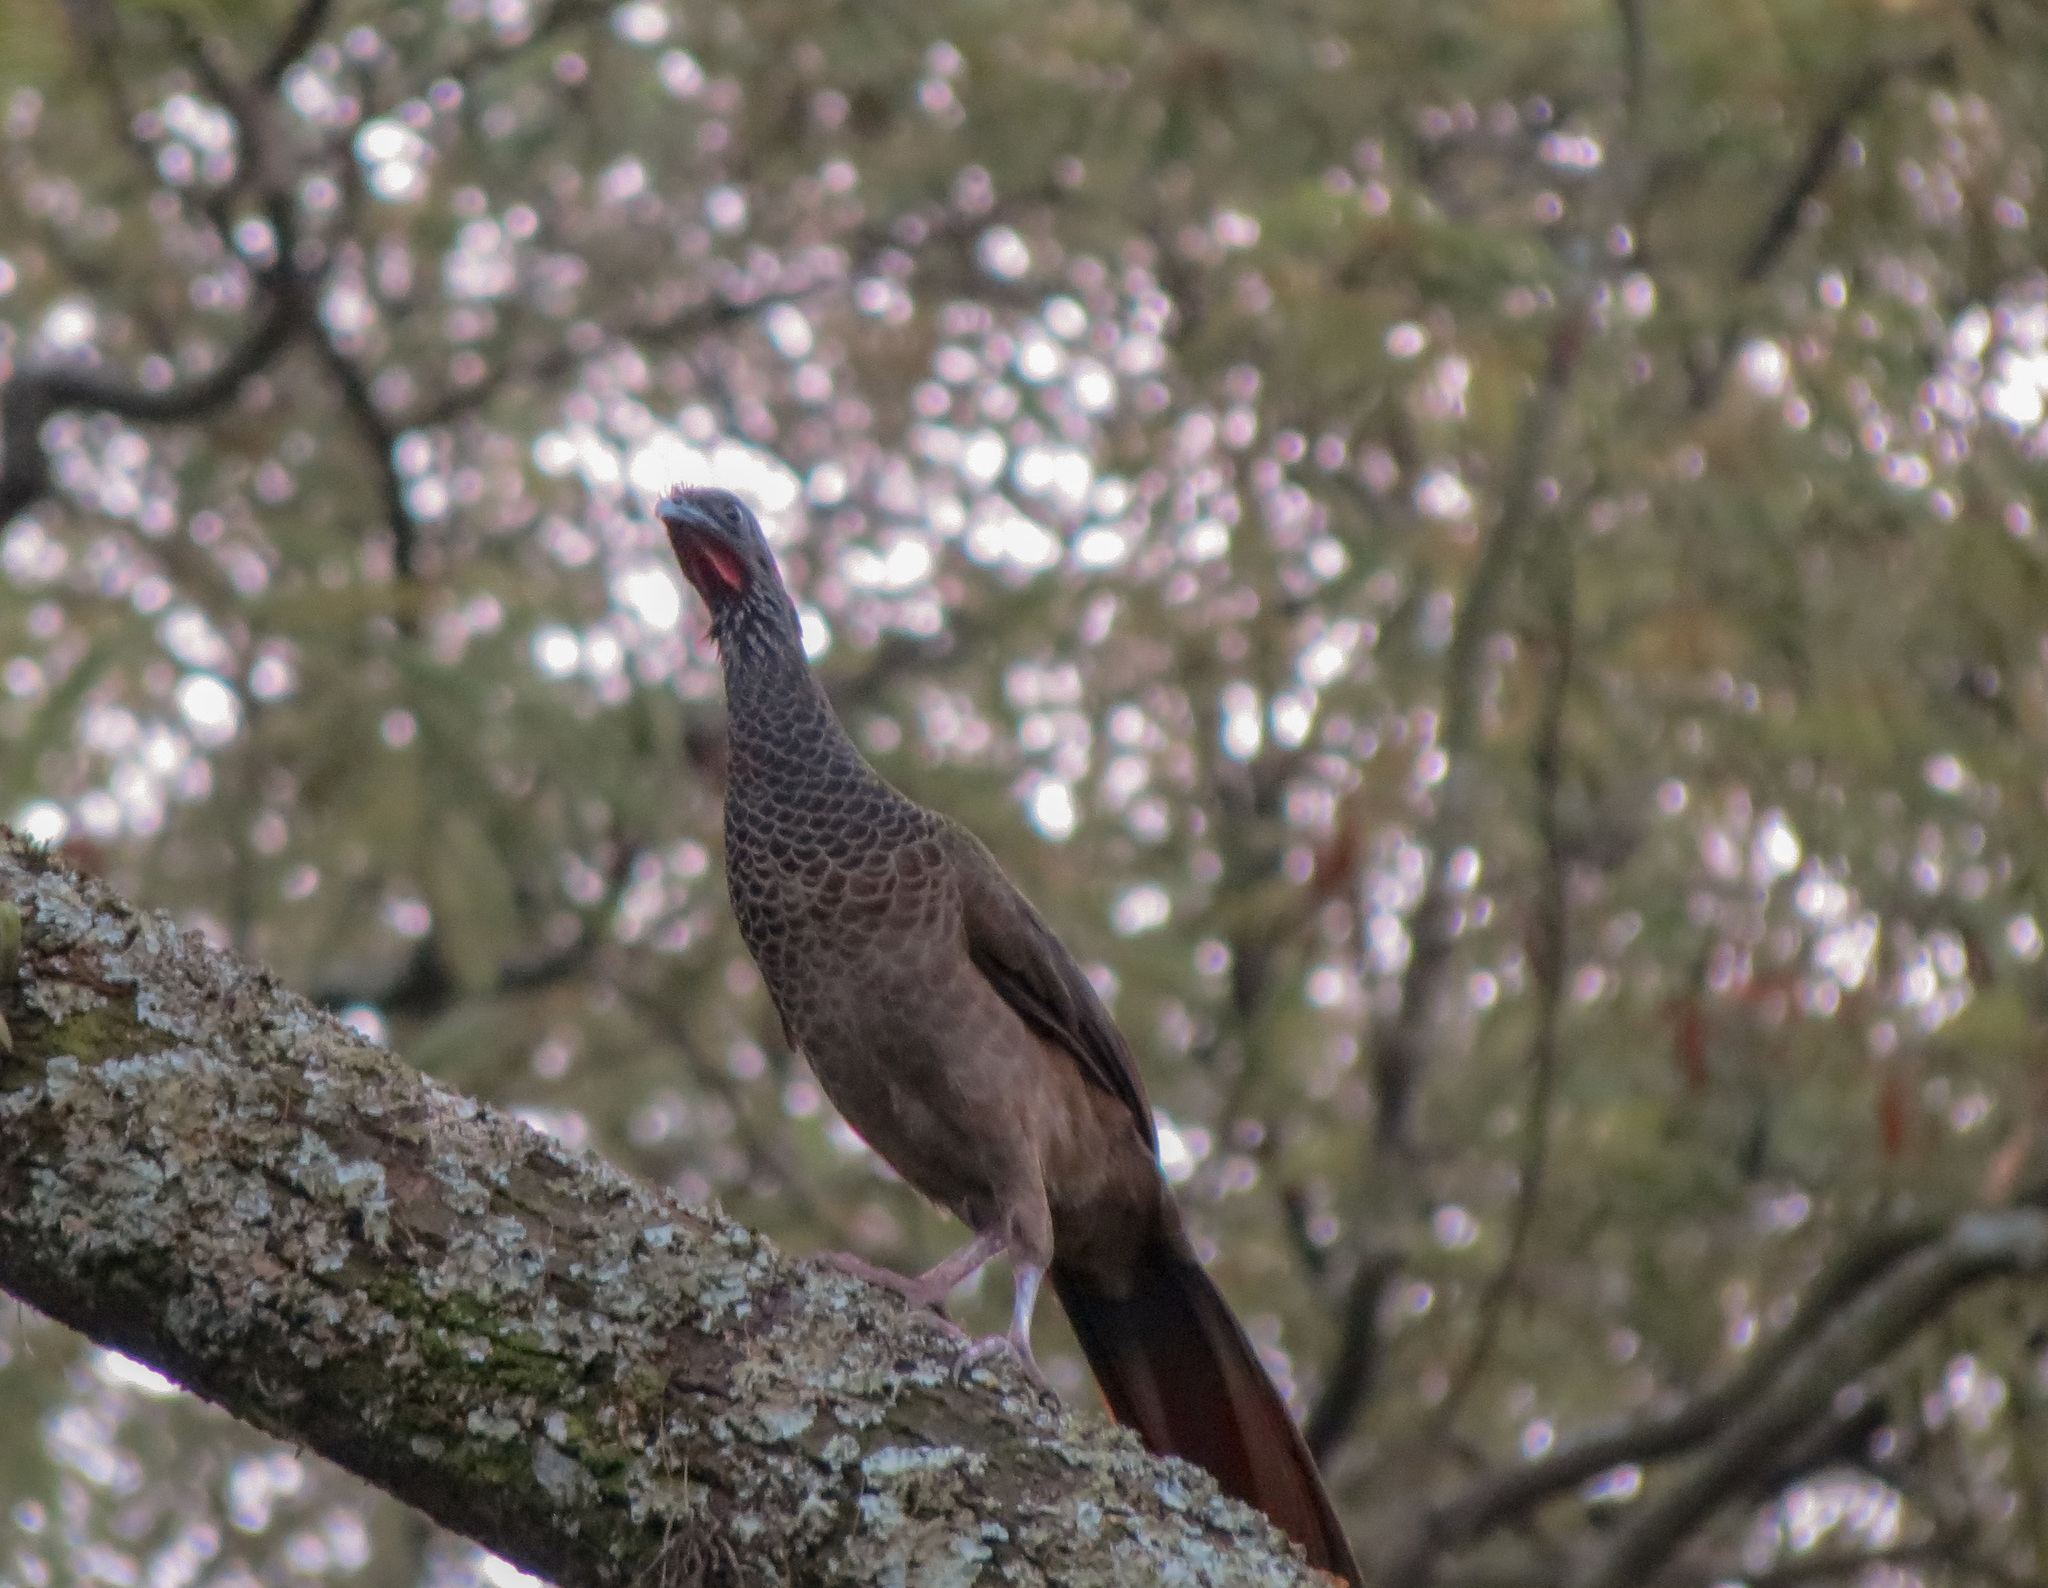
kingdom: Animalia
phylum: Chordata
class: Aves
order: Galliformes
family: Cracidae
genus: Ortalis
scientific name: Ortalis columbiana
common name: Colombian chachalaca
